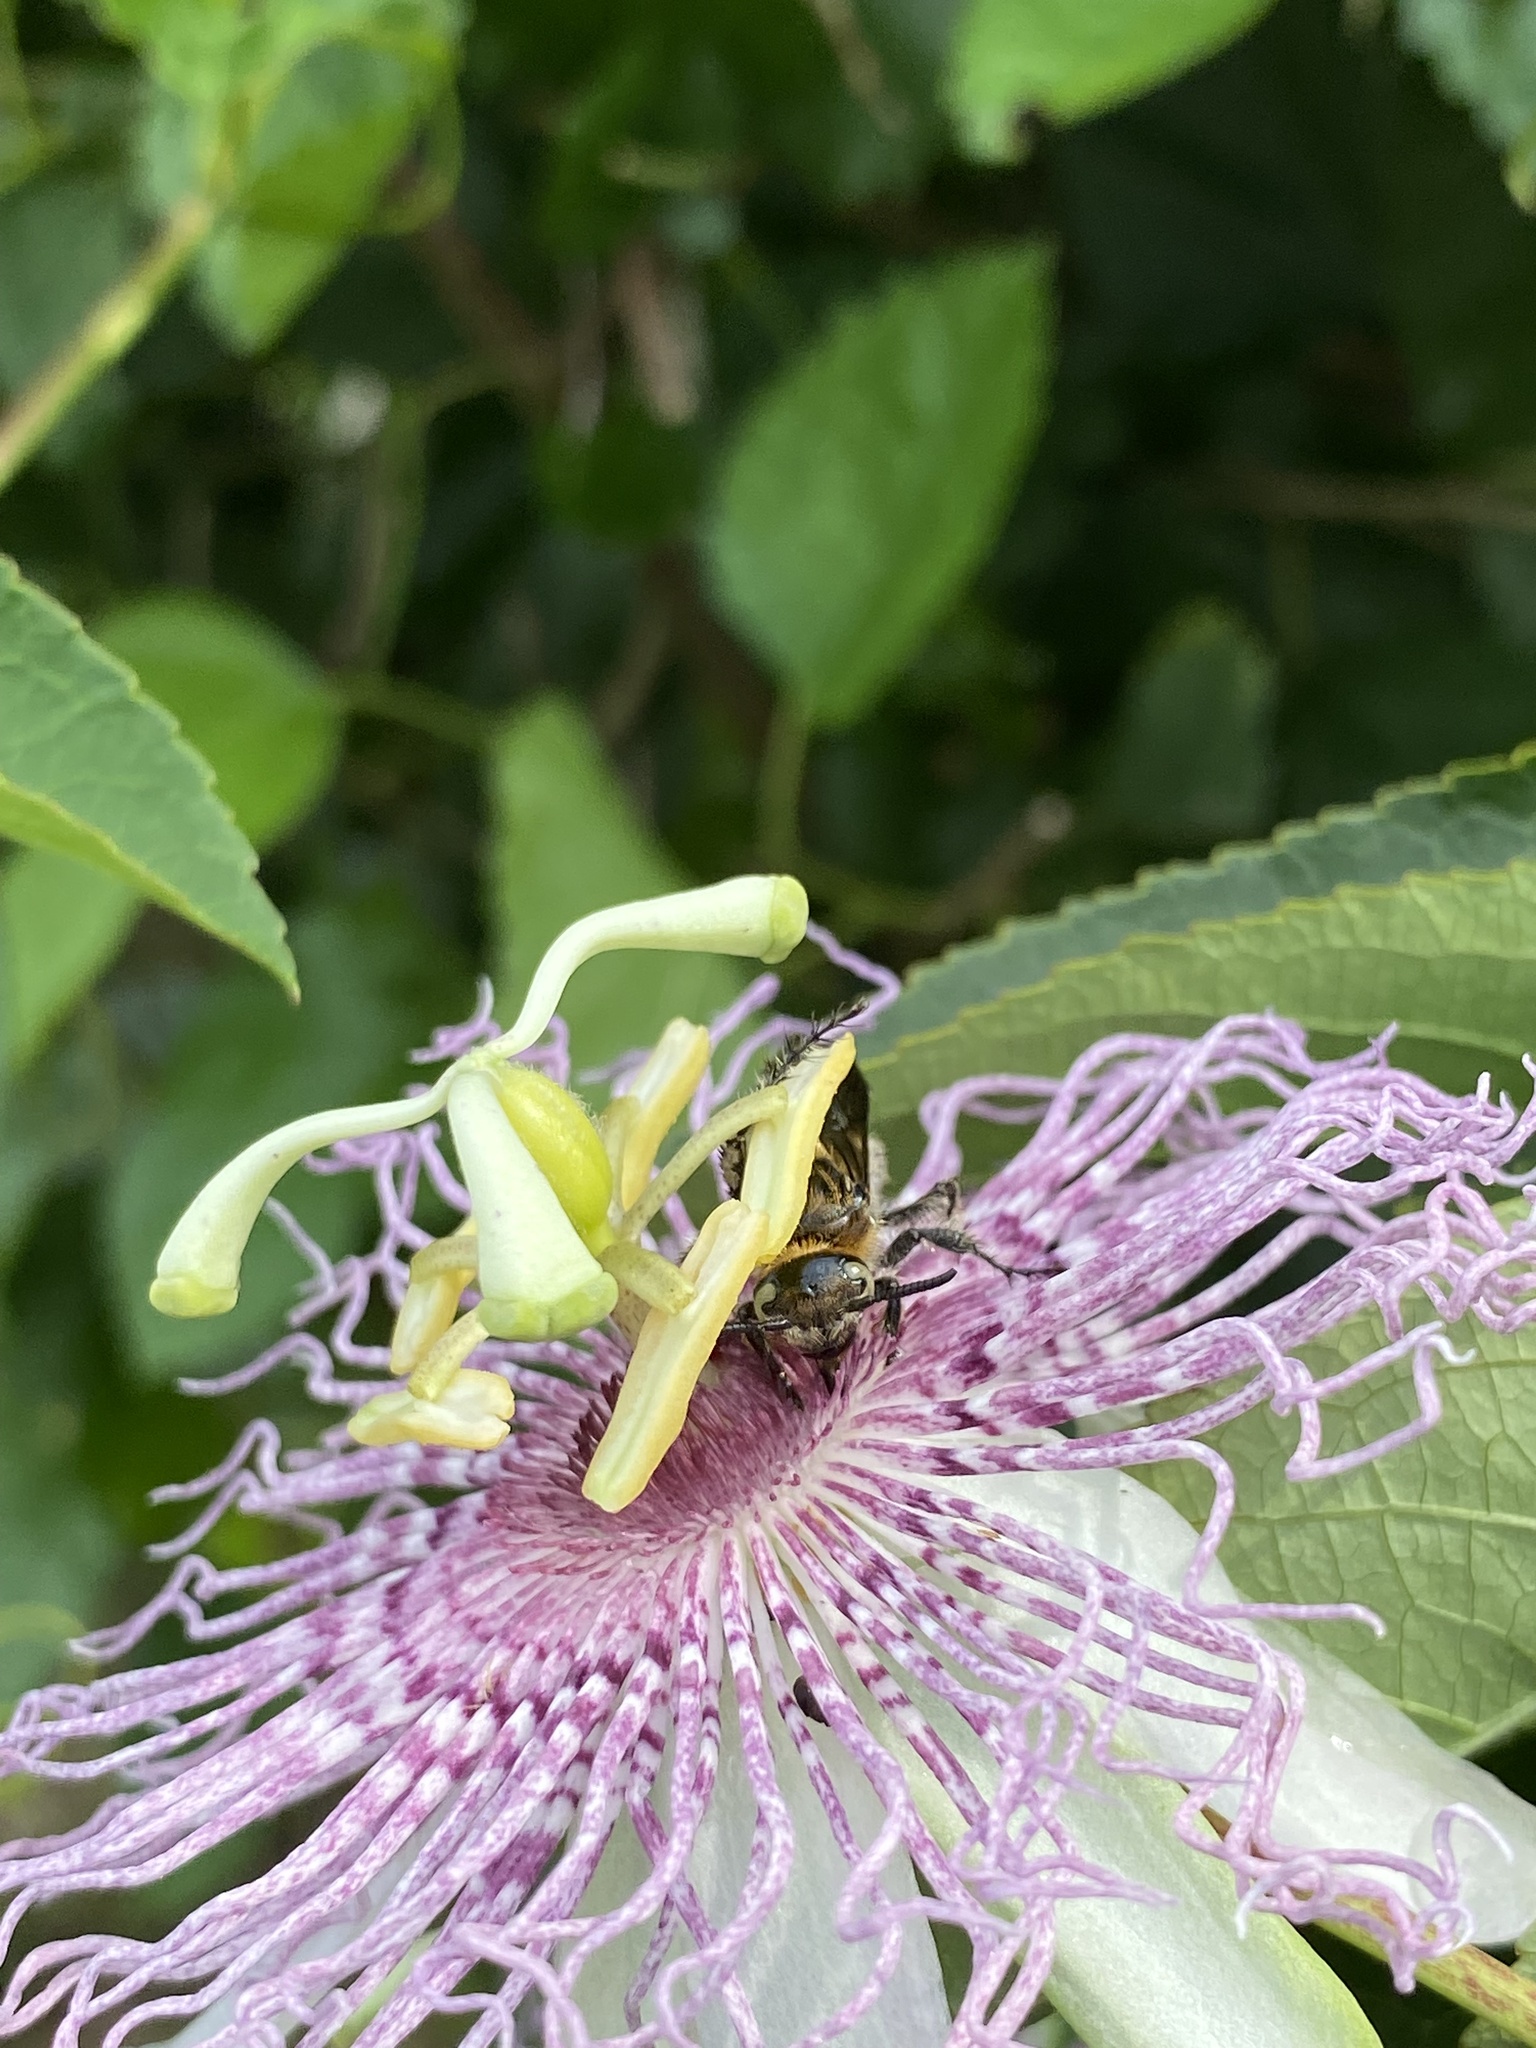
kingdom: Animalia
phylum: Arthropoda
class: Insecta
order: Hymenoptera
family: Scoliidae
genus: Dielis
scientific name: Dielis
